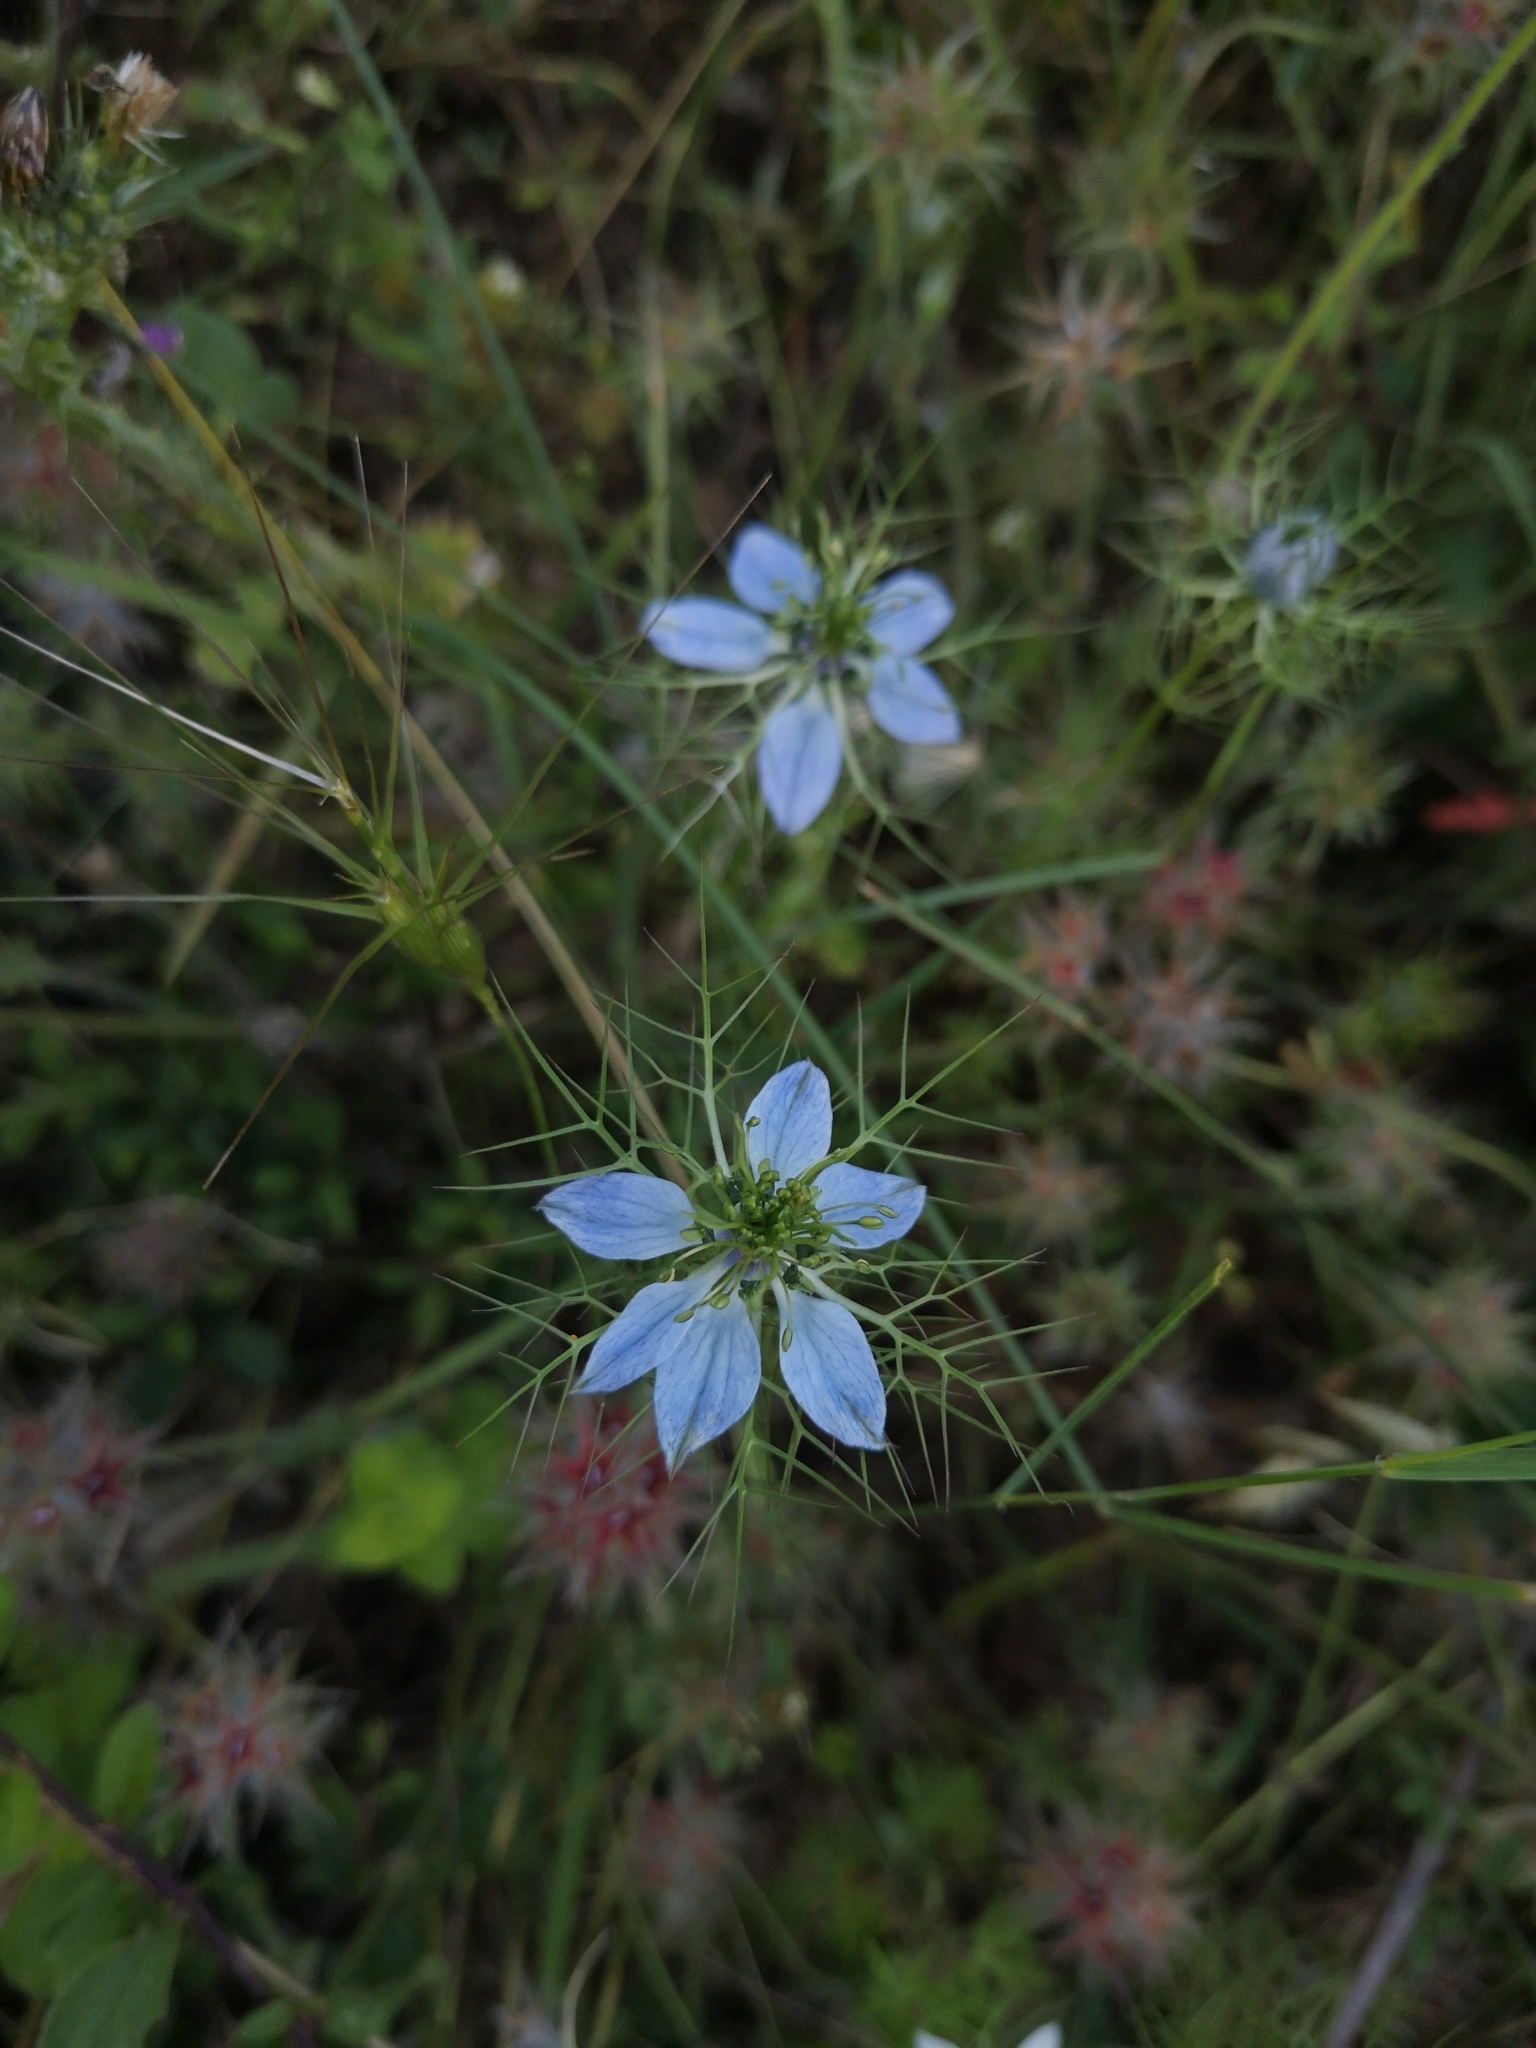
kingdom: Plantae
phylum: Tracheophyta
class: Magnoliopsida
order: Ranunculales
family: Ranunculaceae
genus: Nigella
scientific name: Nigella damascena
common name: Love-in-a-mist
